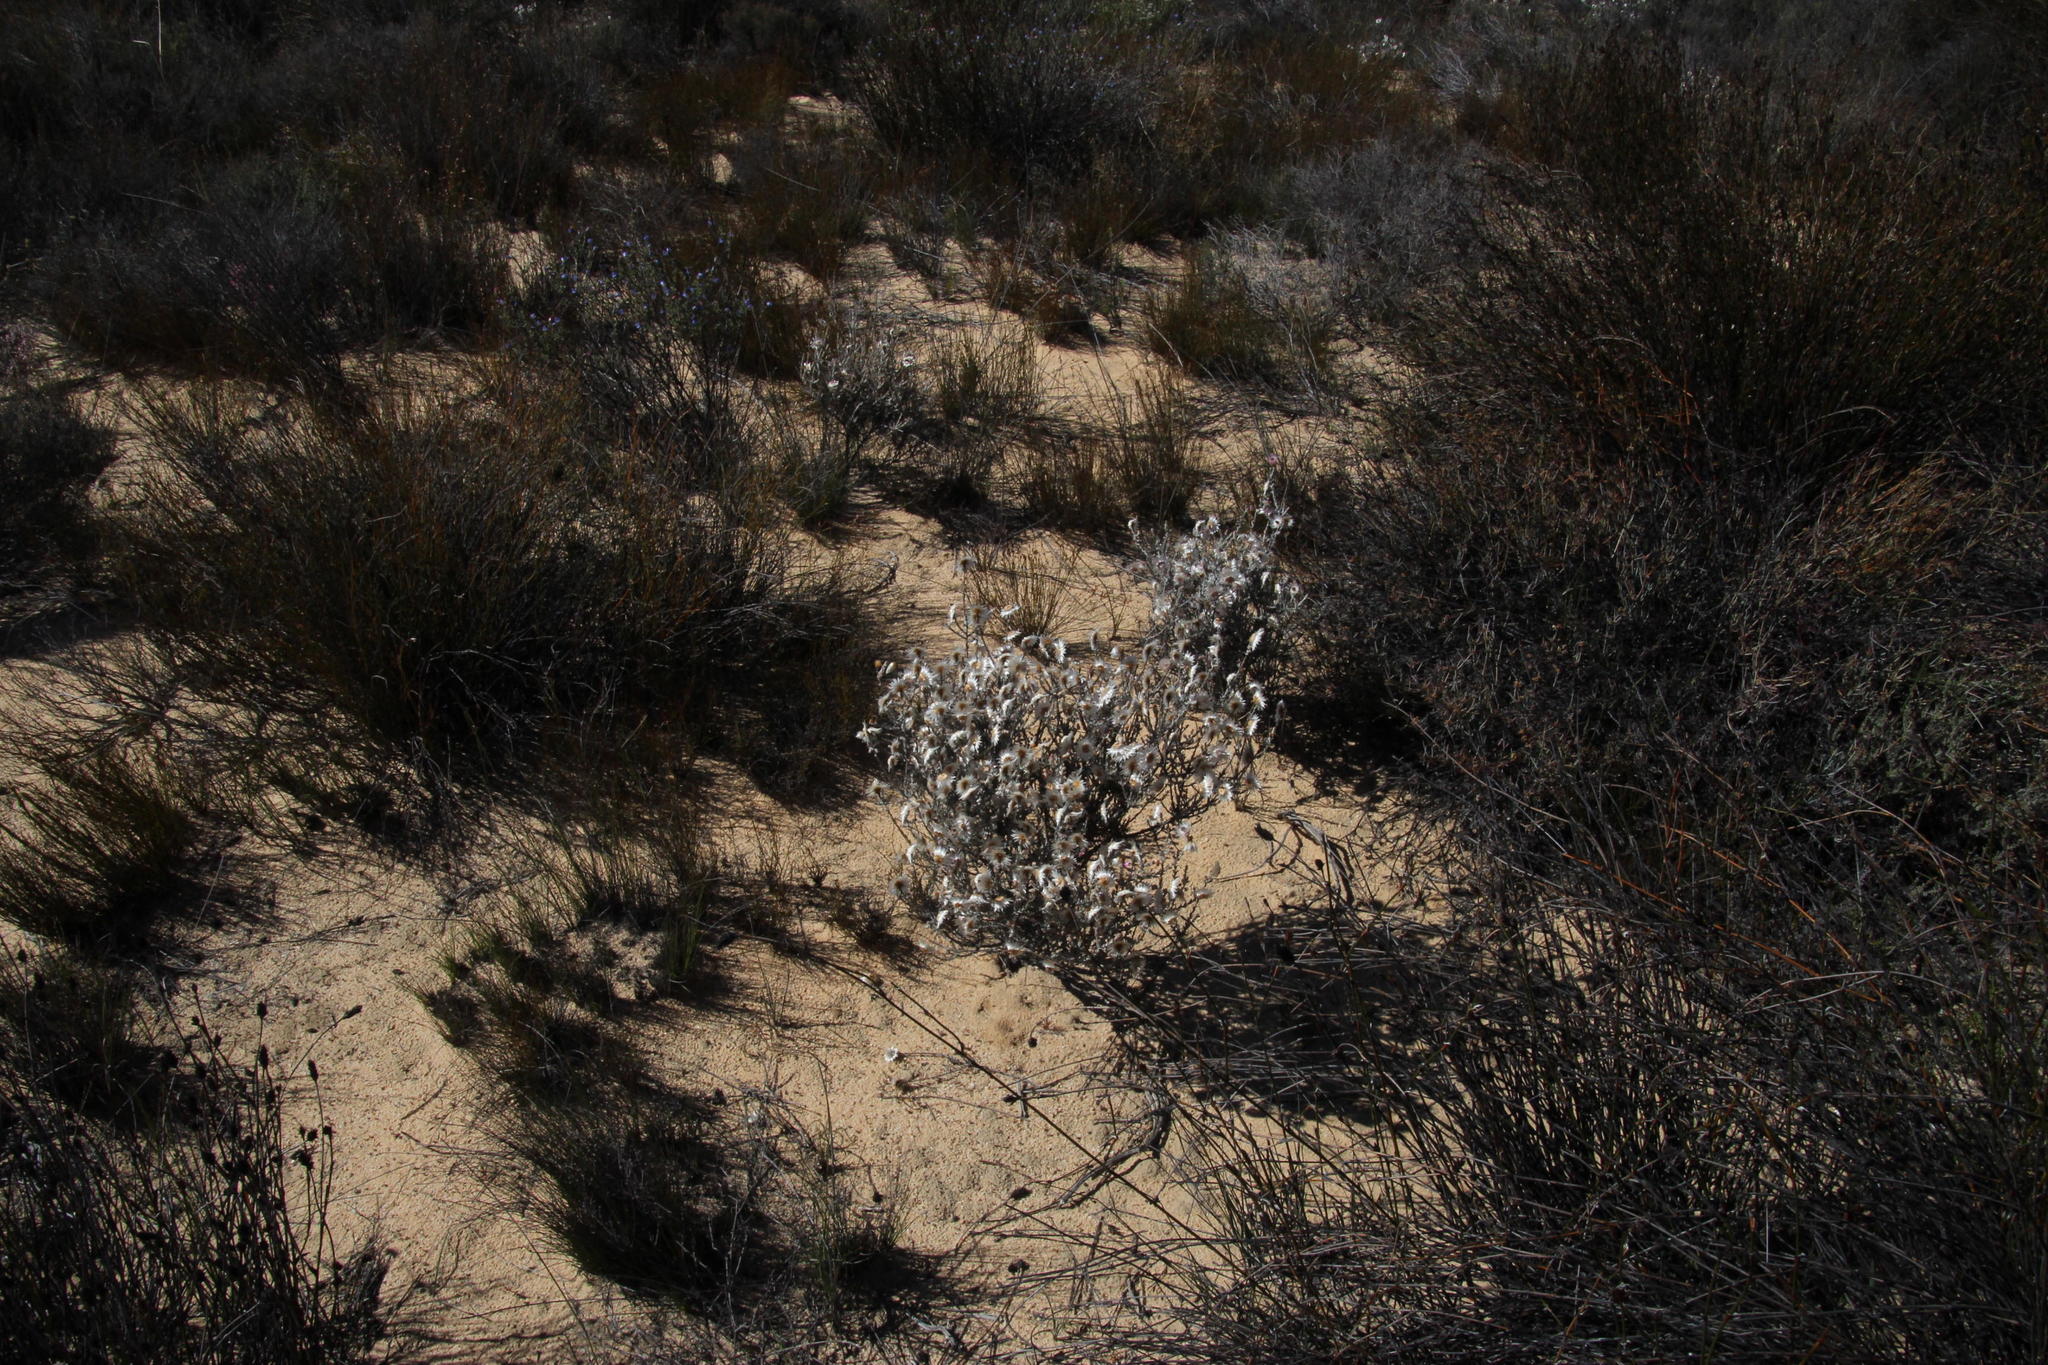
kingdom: Plantae
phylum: Tracheophyta
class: Magnoliopsida
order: Asterales
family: Asteraceae
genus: Syncarpha
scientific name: Syncarpha canescens
